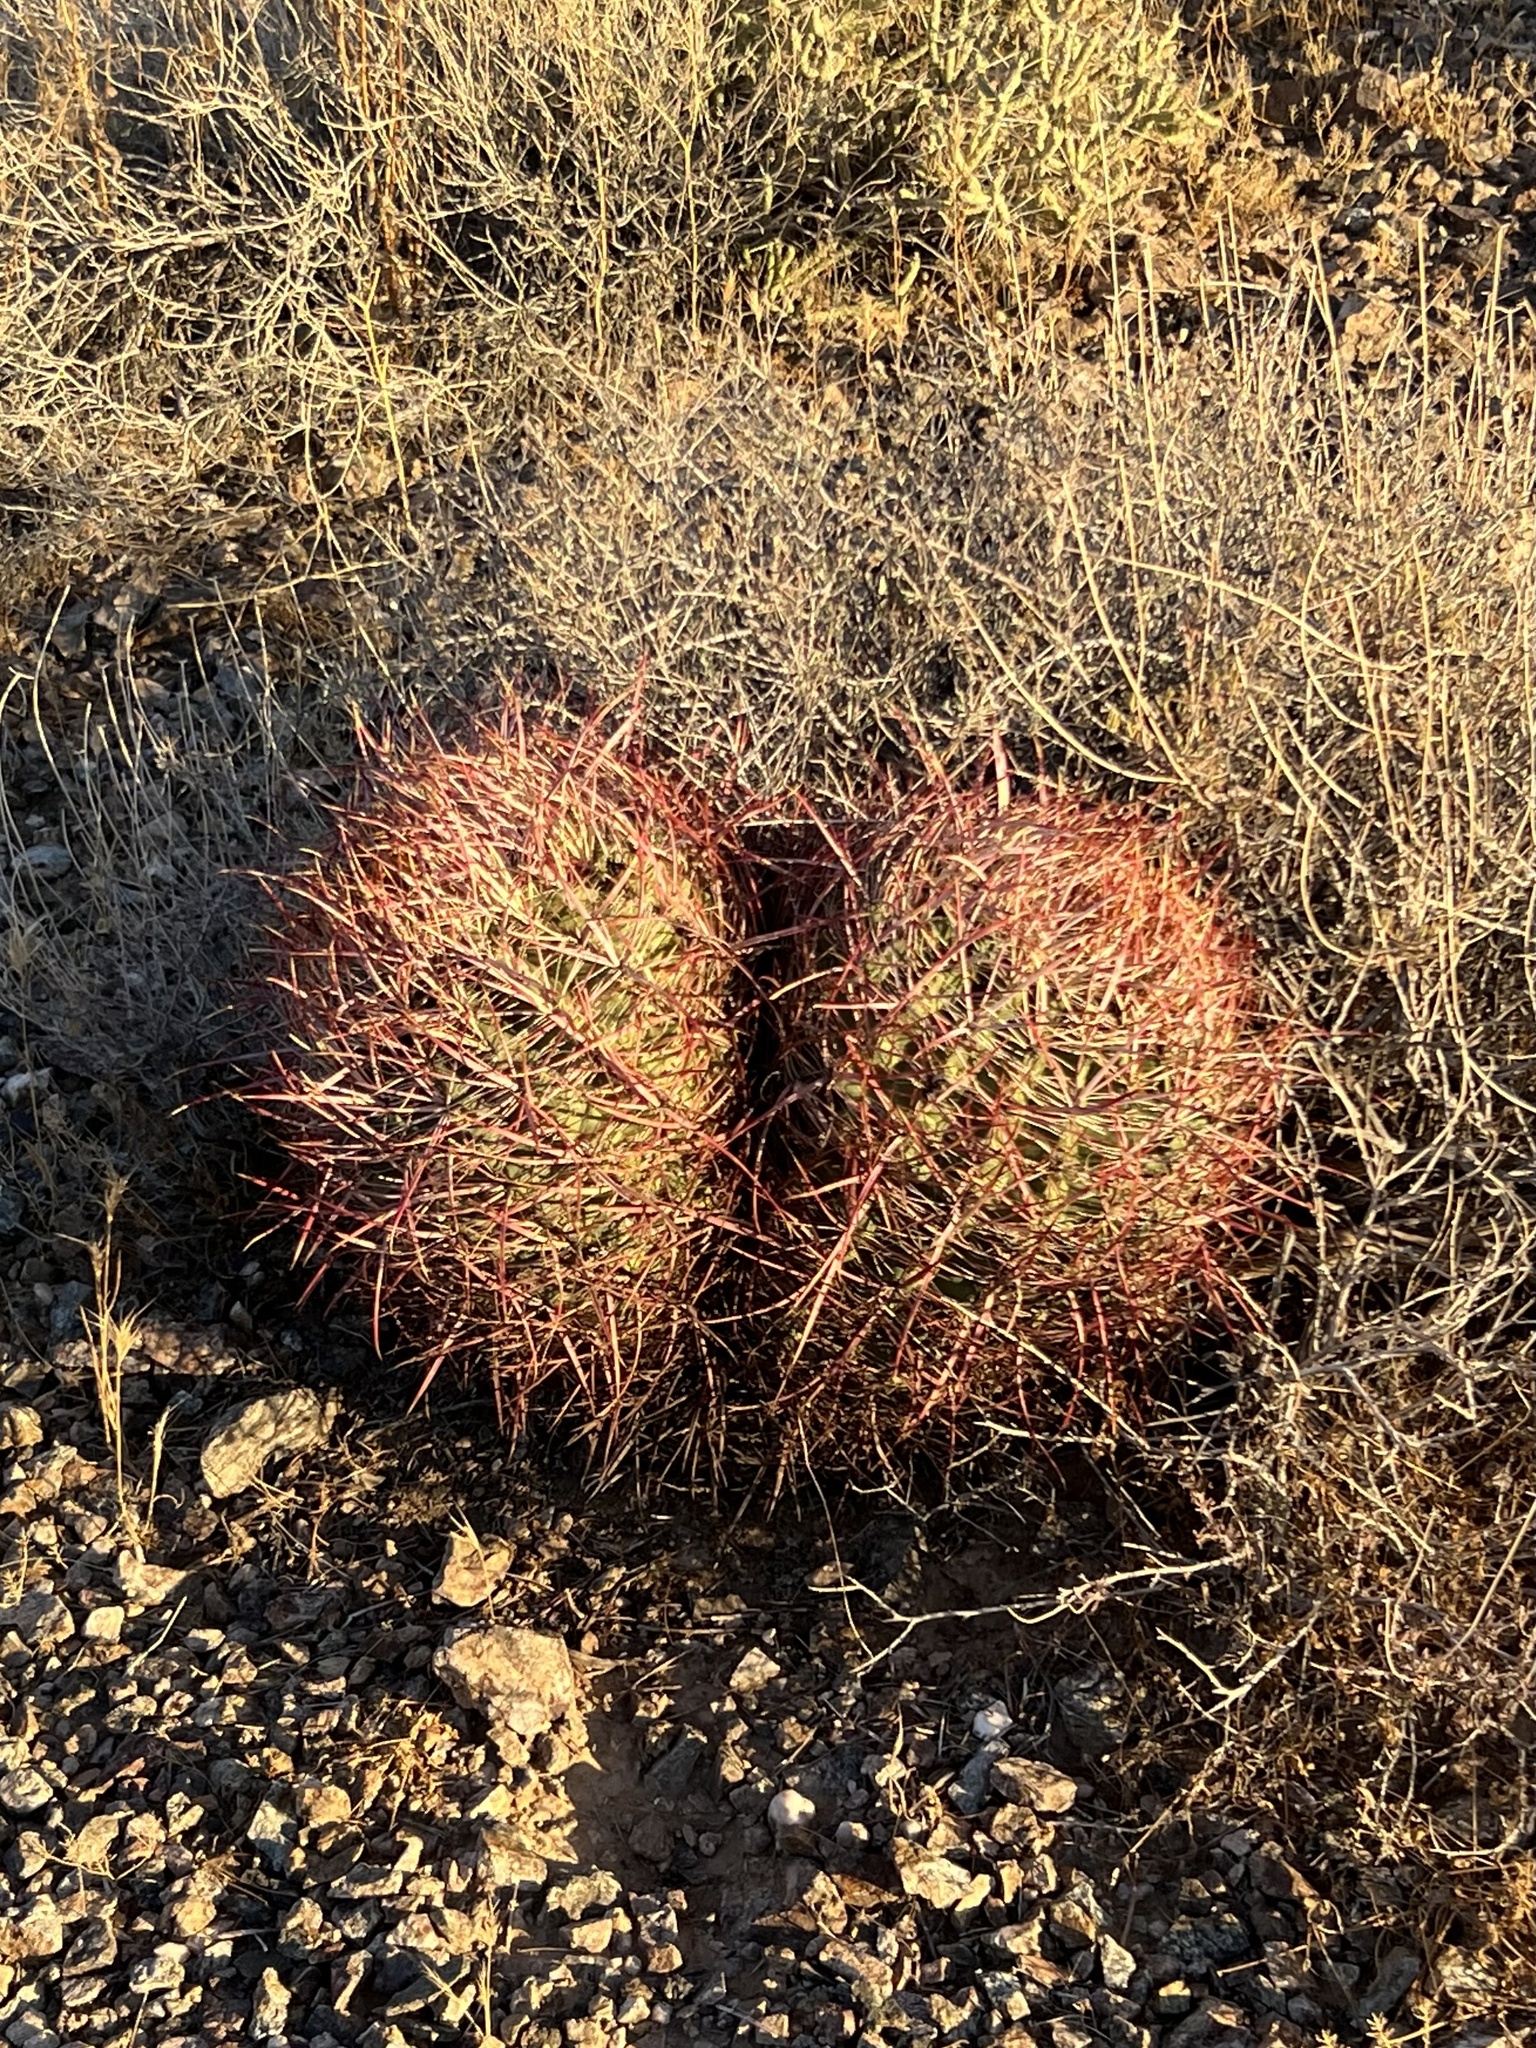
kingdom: Plantae
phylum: Tracheophyta
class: Magnoliopsida
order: Caryophyllales
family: Cactaceae
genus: Ferocactus
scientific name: Ferocactus cylindraceus
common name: California barrel cactus
